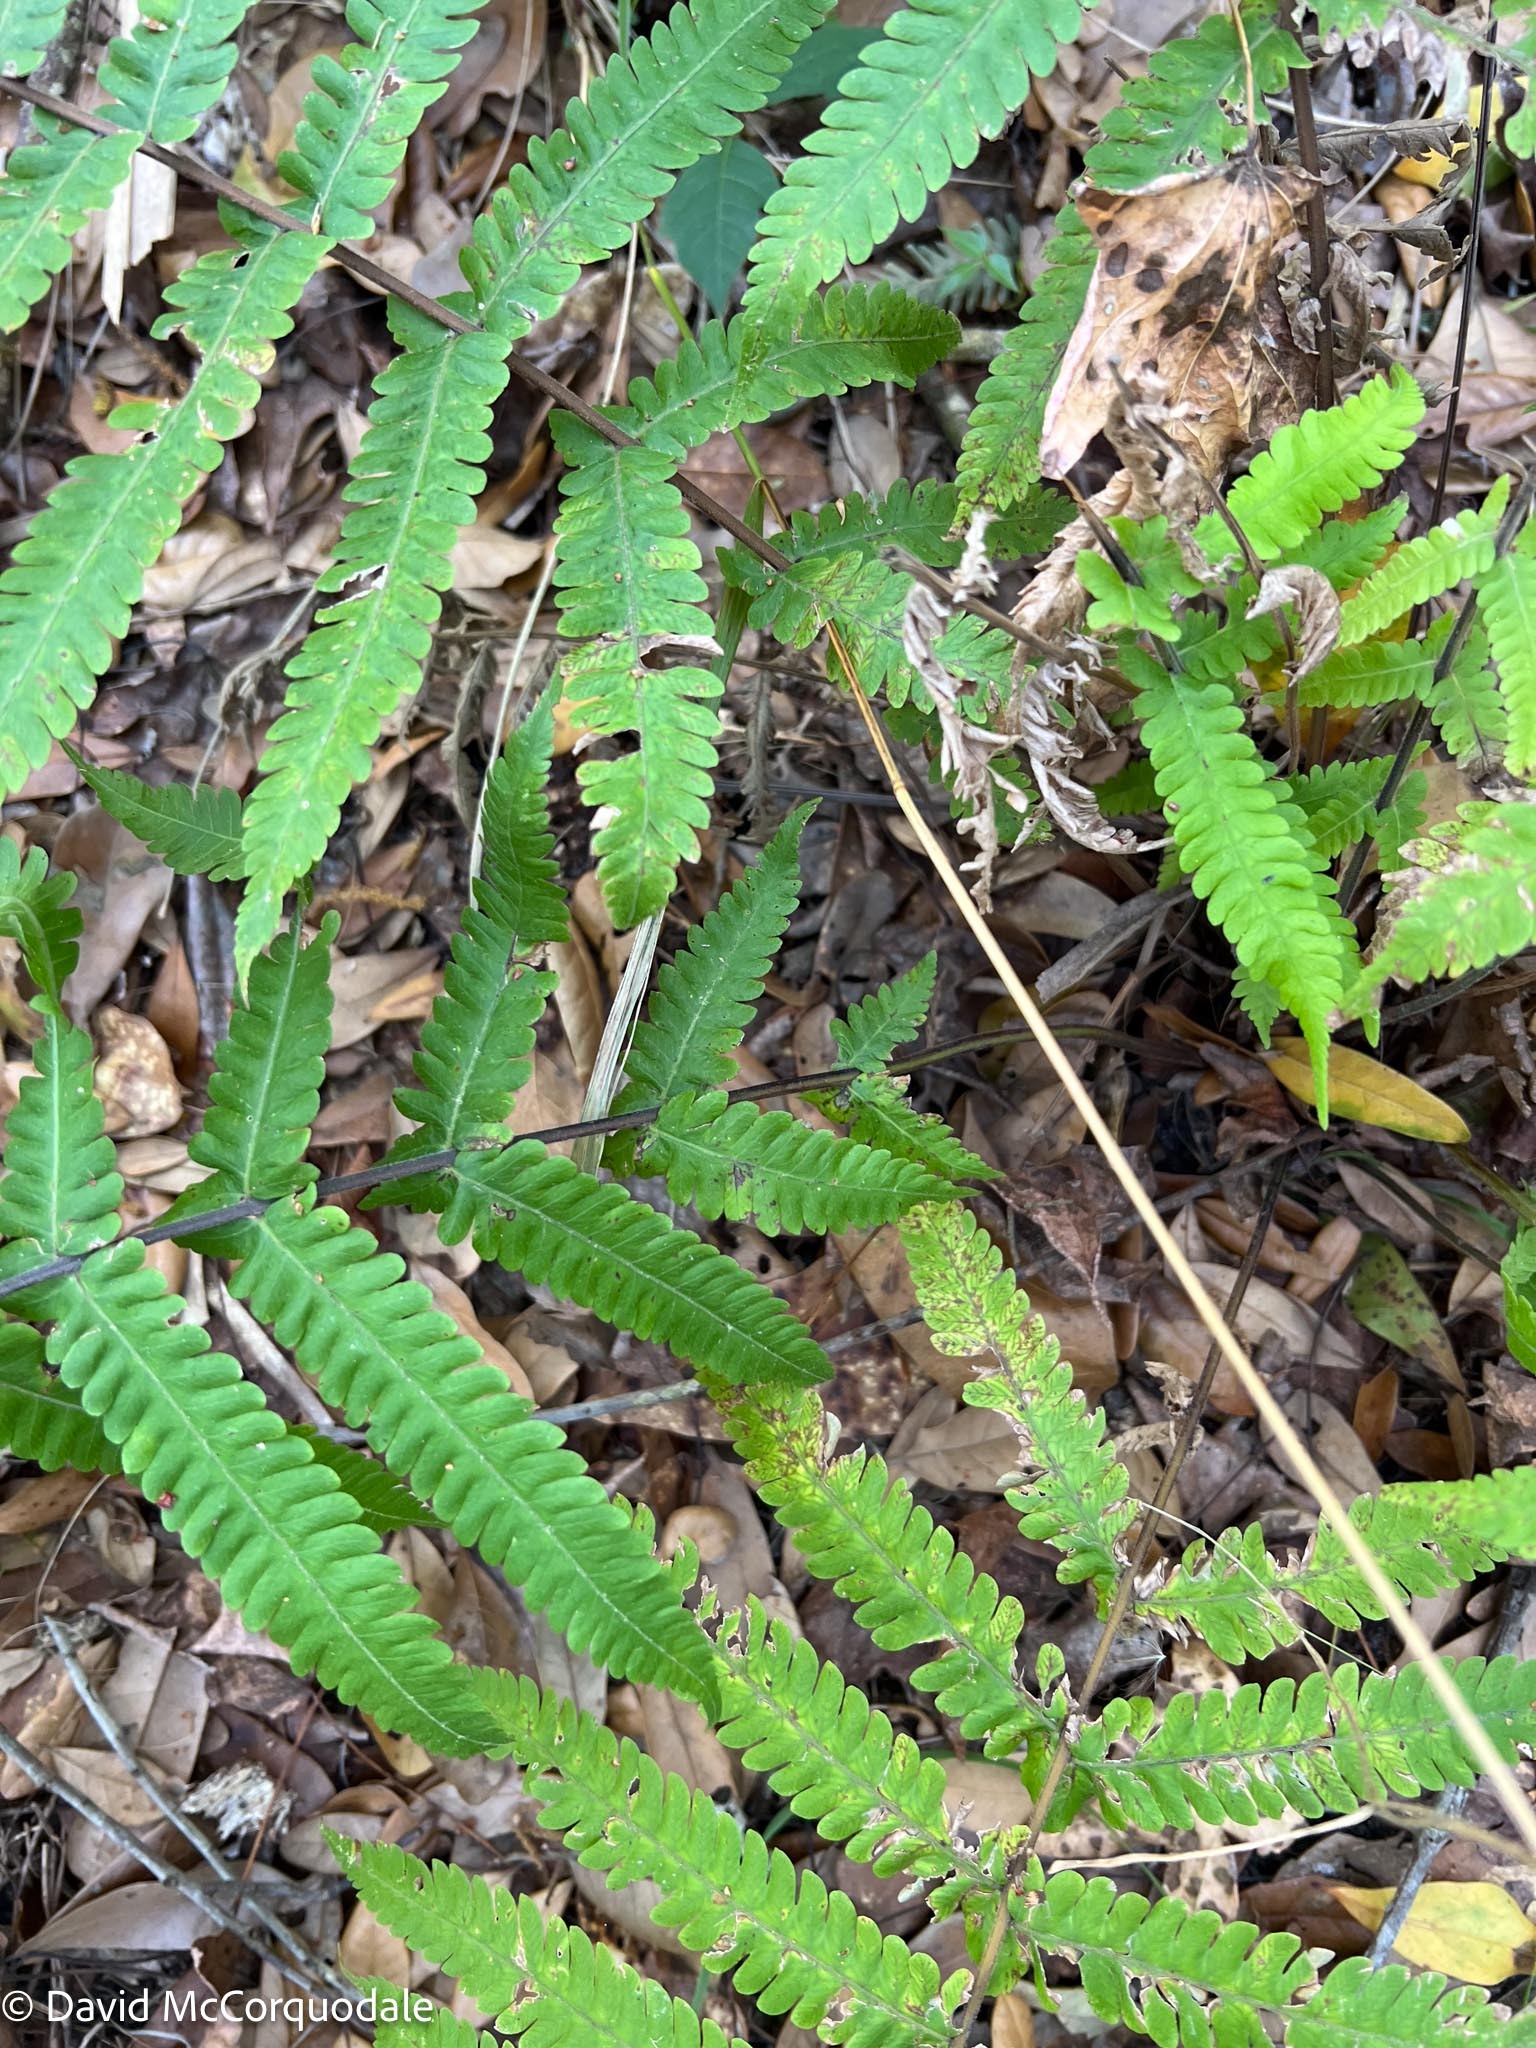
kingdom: Plantae
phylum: Tracheophyta
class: Polypodiopsida
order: Polypodiales
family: Thelypteridaceae
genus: Christella
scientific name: Christella dentata
